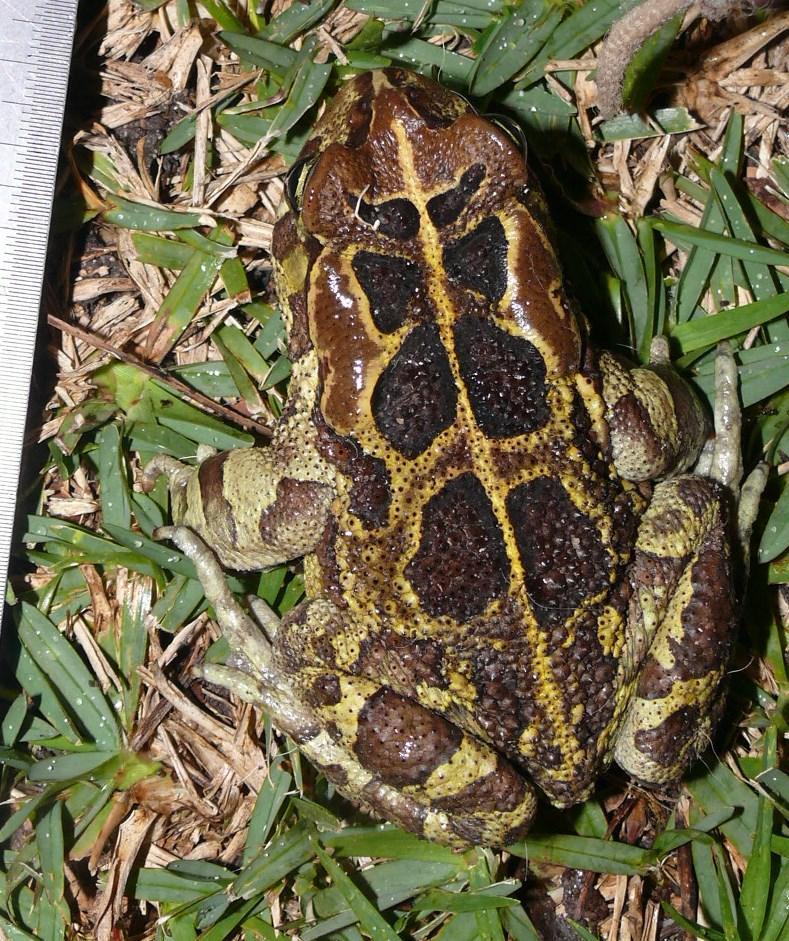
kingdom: Animalia
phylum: Chordata
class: Amphibia
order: Anura
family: Bufonidae
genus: Sclerophrys
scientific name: Sclerophrys pantherina
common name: Panther toad
